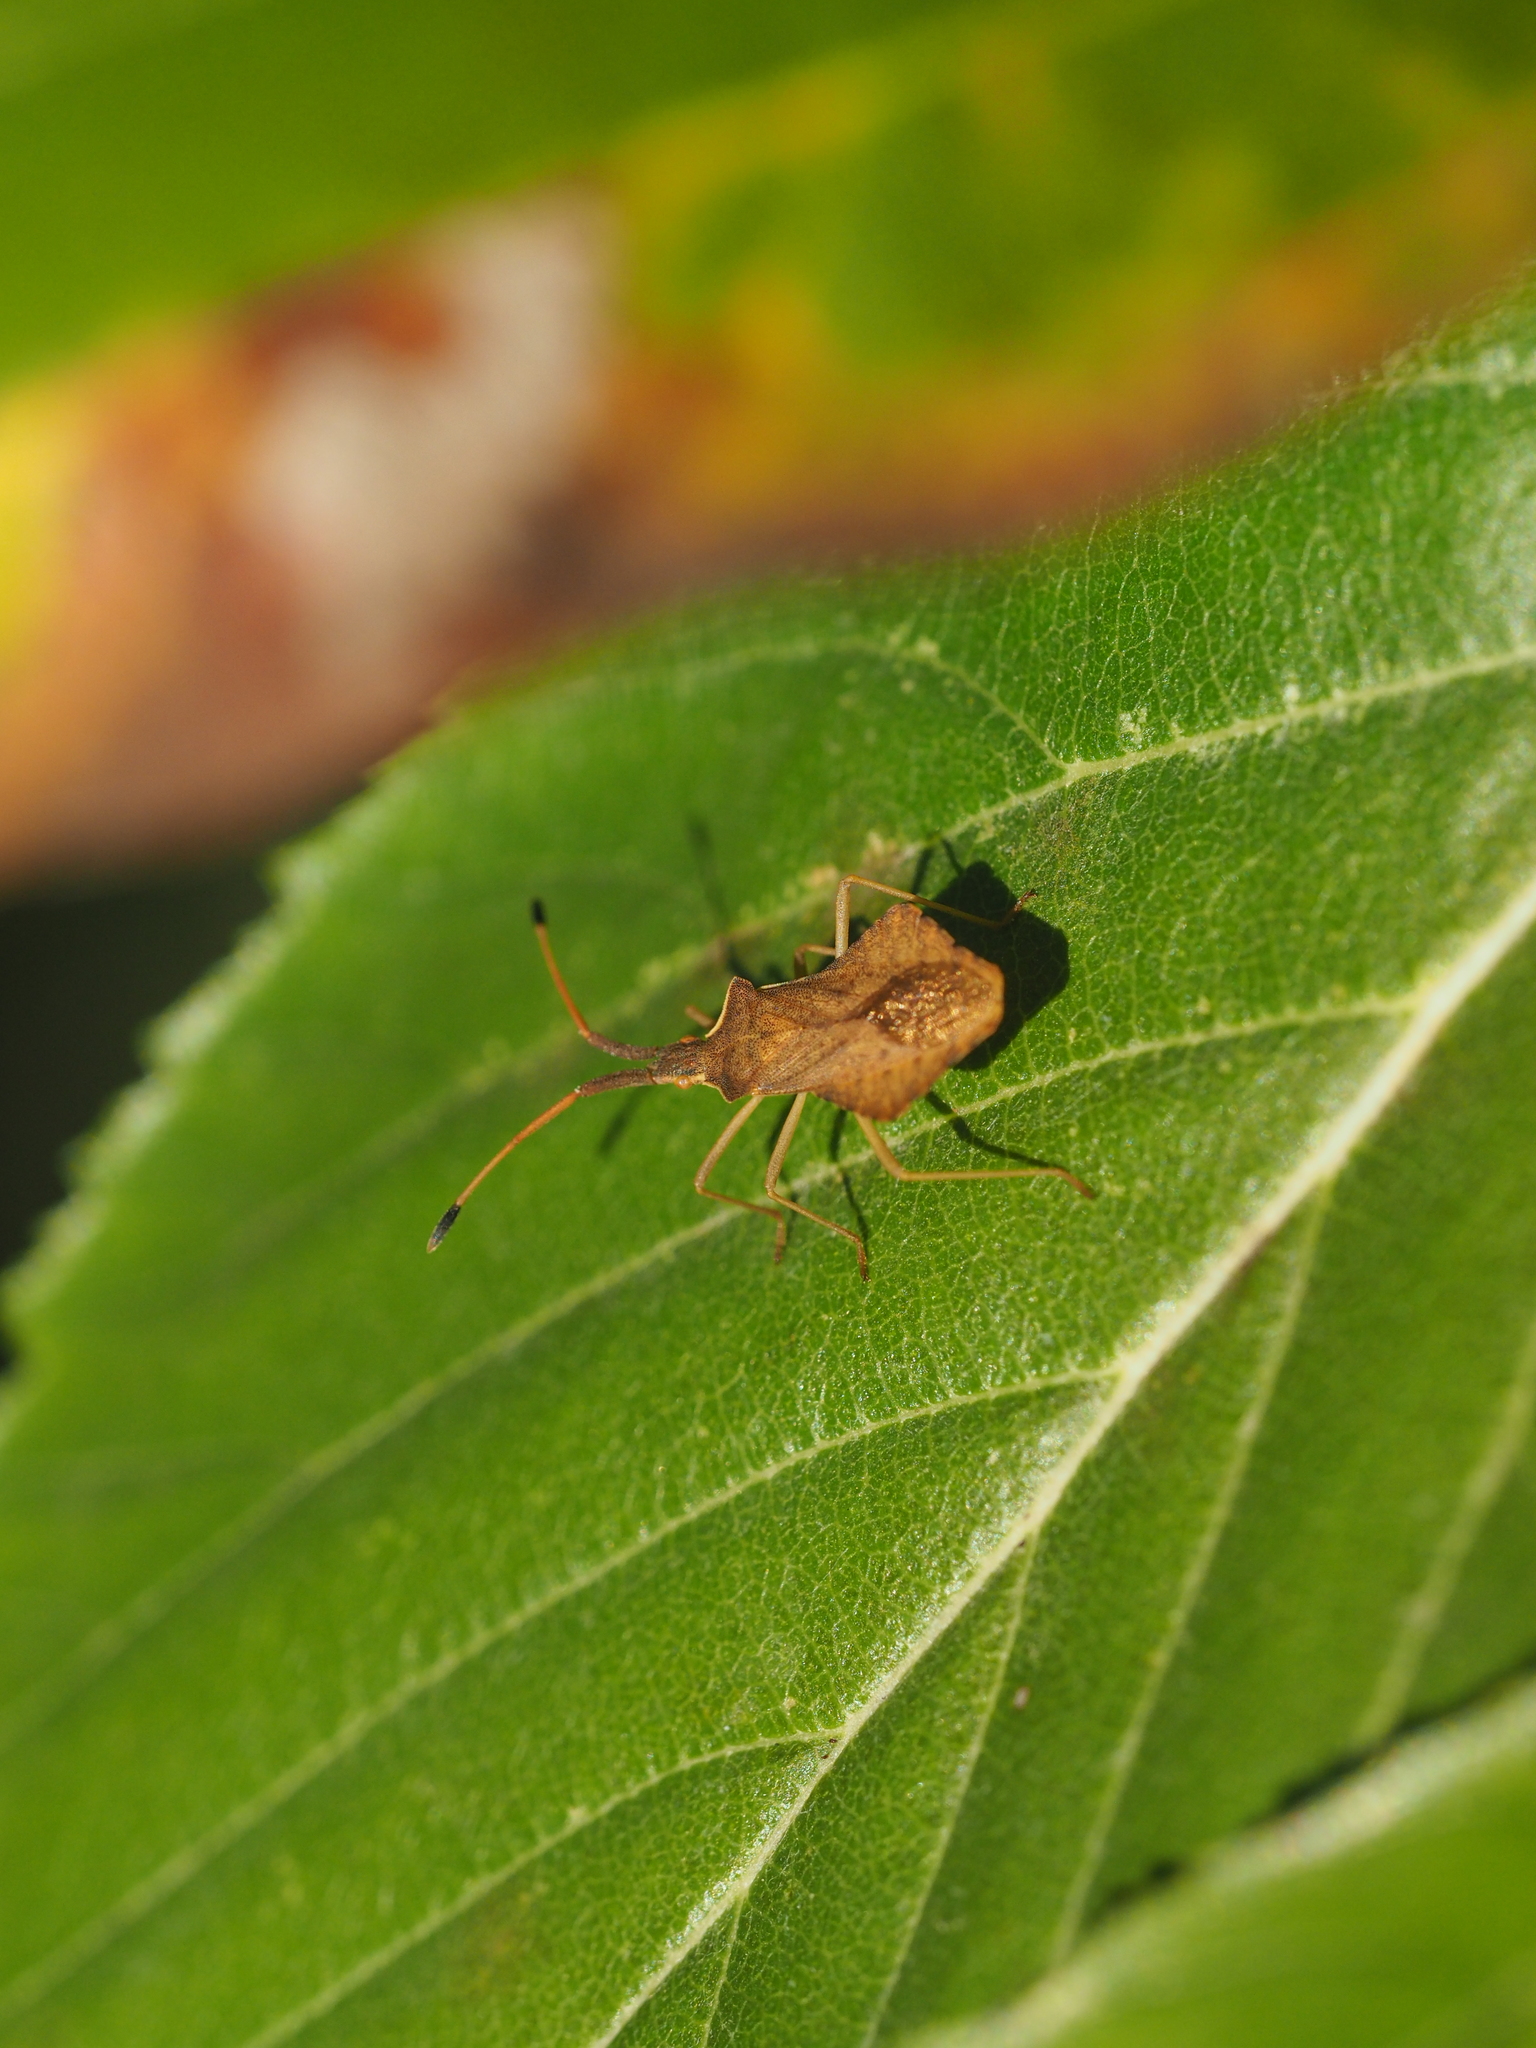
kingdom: Animalia
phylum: Arthropoda
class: Insecta
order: Hemiptera
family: Coreidae
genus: Syromastus
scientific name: Syromastus rhombeus
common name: Rhombic leatherbug
